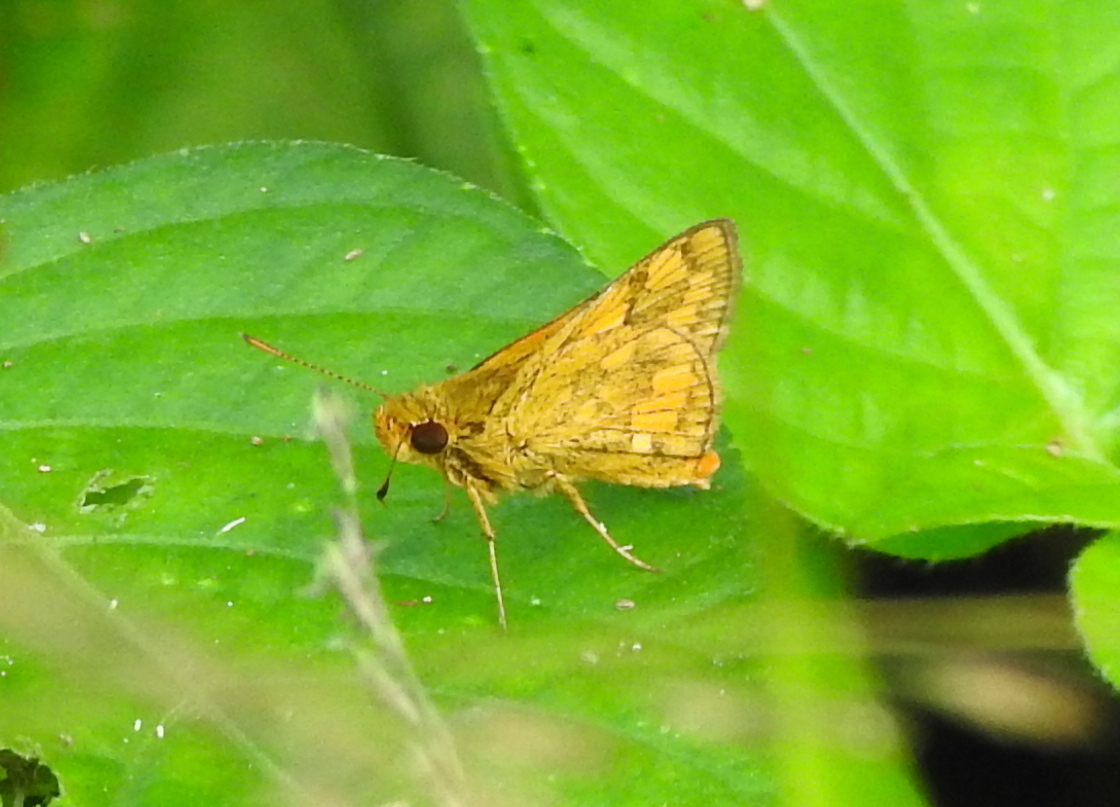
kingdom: Animalia
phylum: Arthropoda
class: Insecta
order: Lepidoptera
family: Hesperiidae
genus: Potanthus
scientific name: Potanthus omaha
